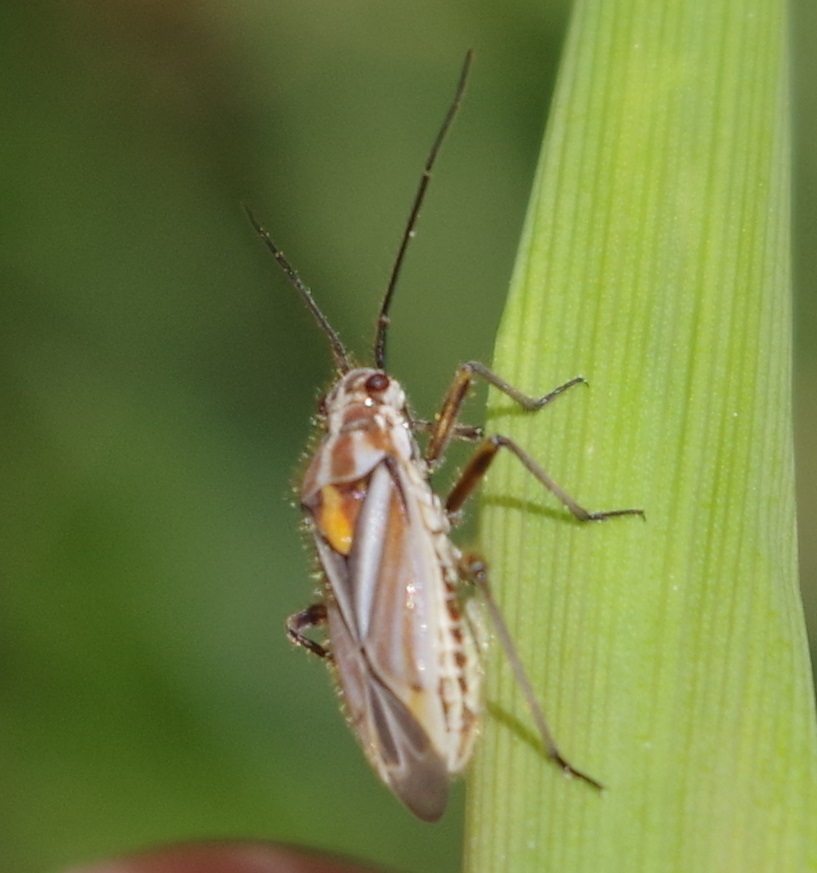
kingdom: Animalia
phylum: Arthropoda
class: Insecta
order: Hemiptera
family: Miridae
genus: Horistus
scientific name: Horistus orientalis
